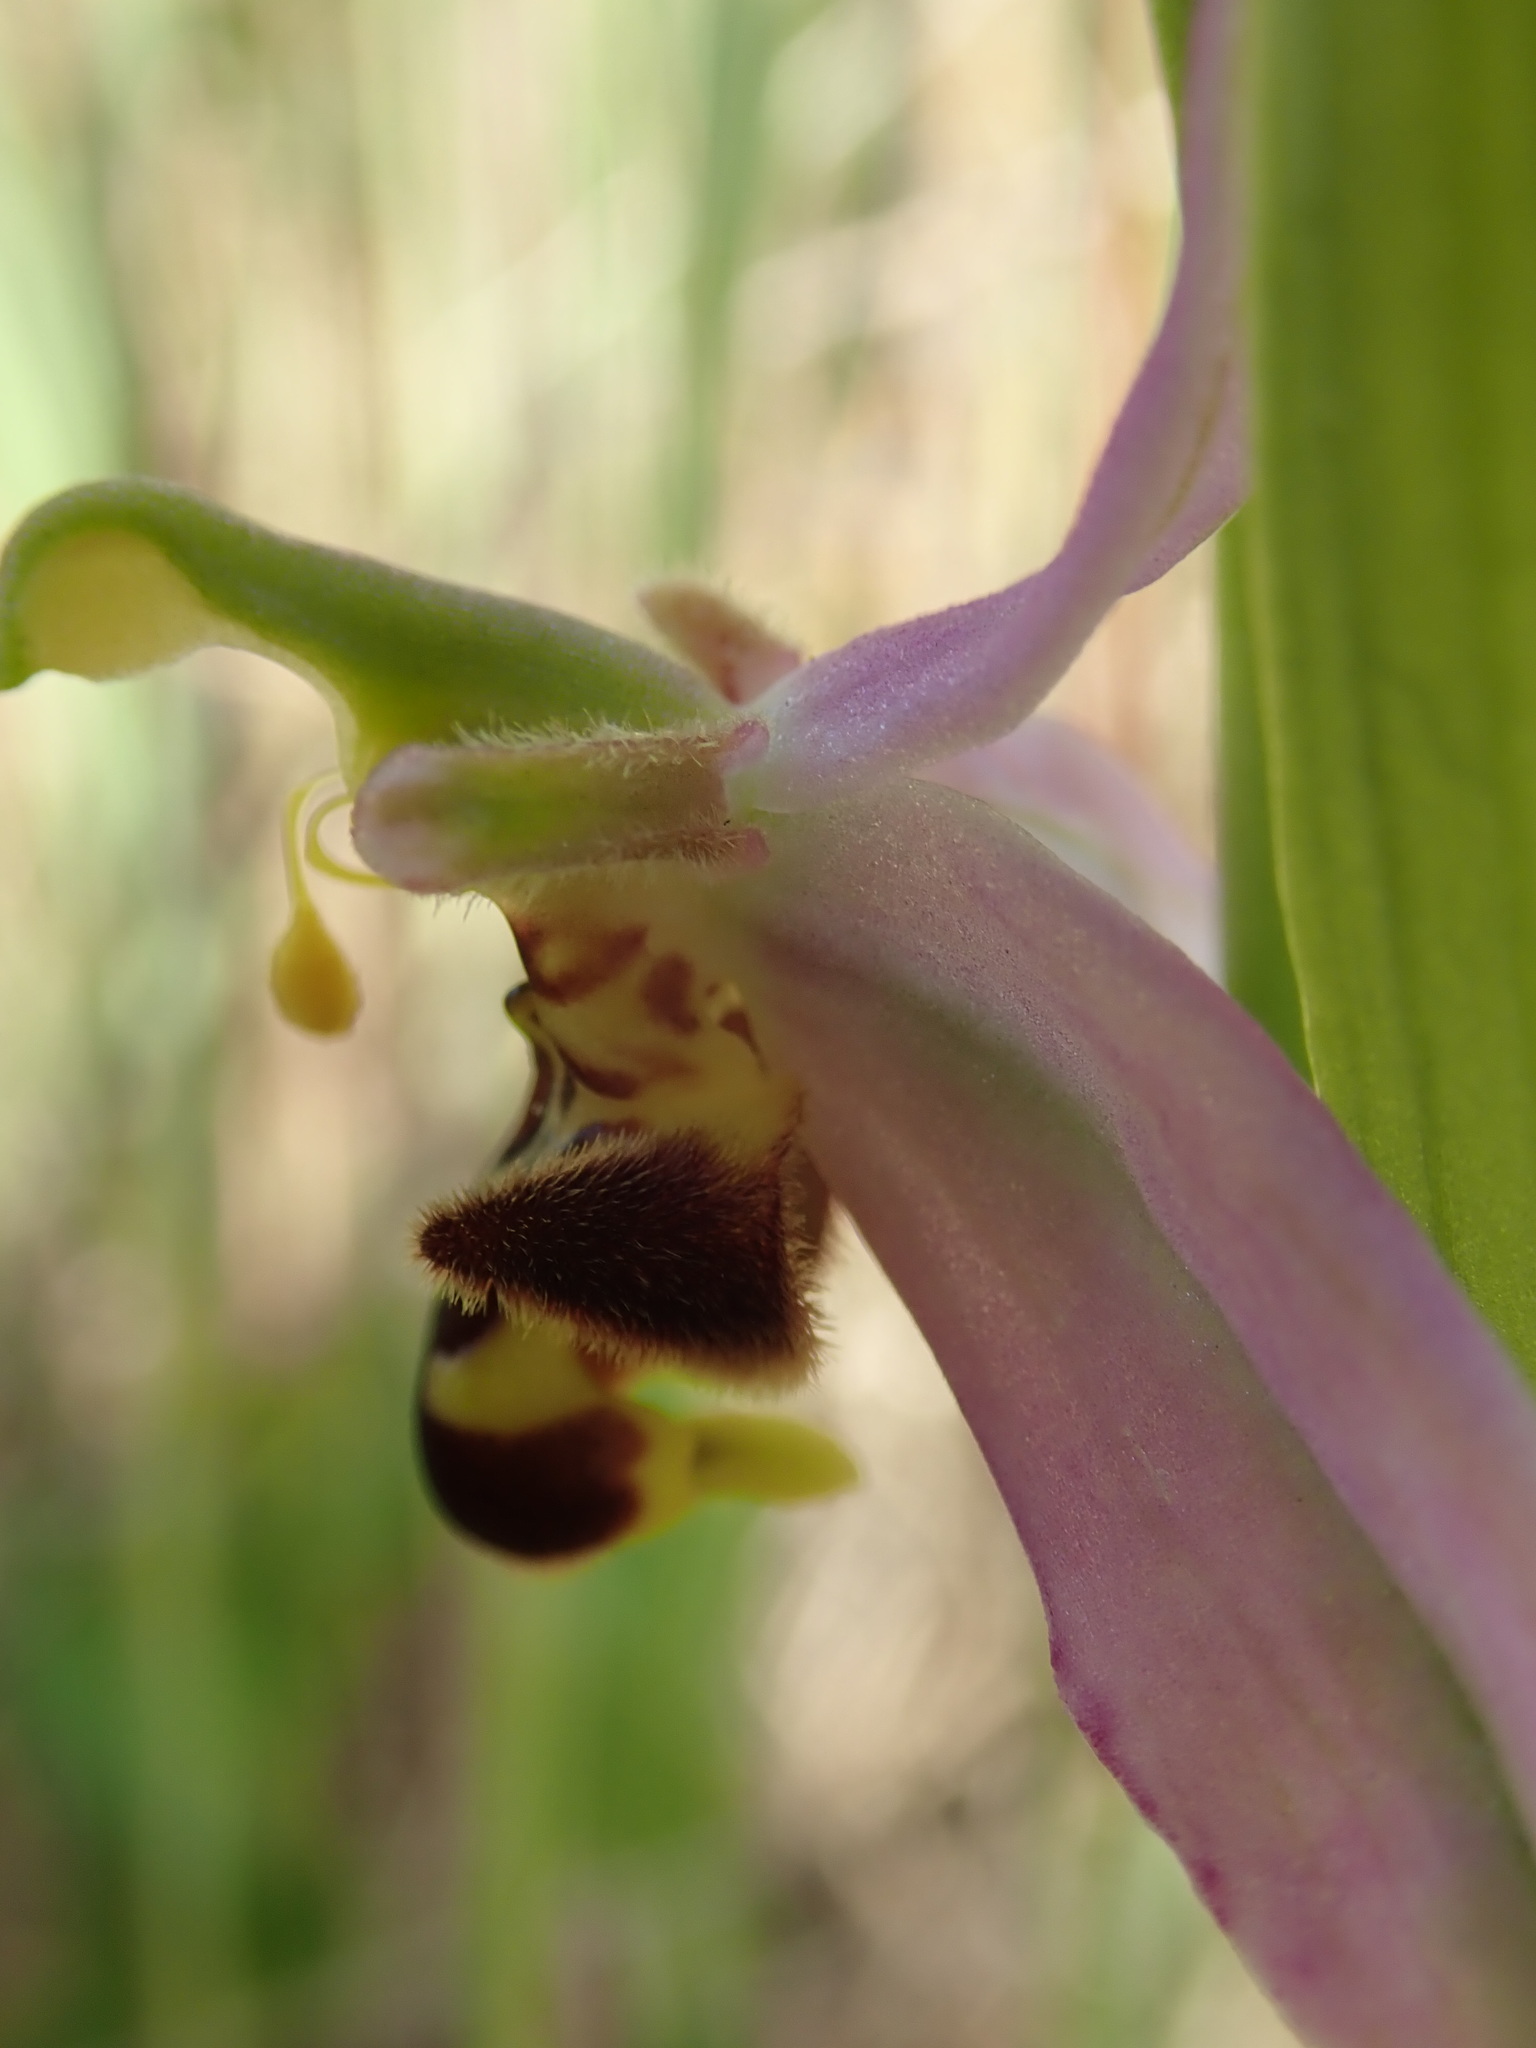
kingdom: Plantae
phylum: Tracheophyta
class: Liliopsida
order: Asparagales
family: Orchidaceae
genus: Ophrys
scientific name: Ophrys apifera
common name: Bee orchid
